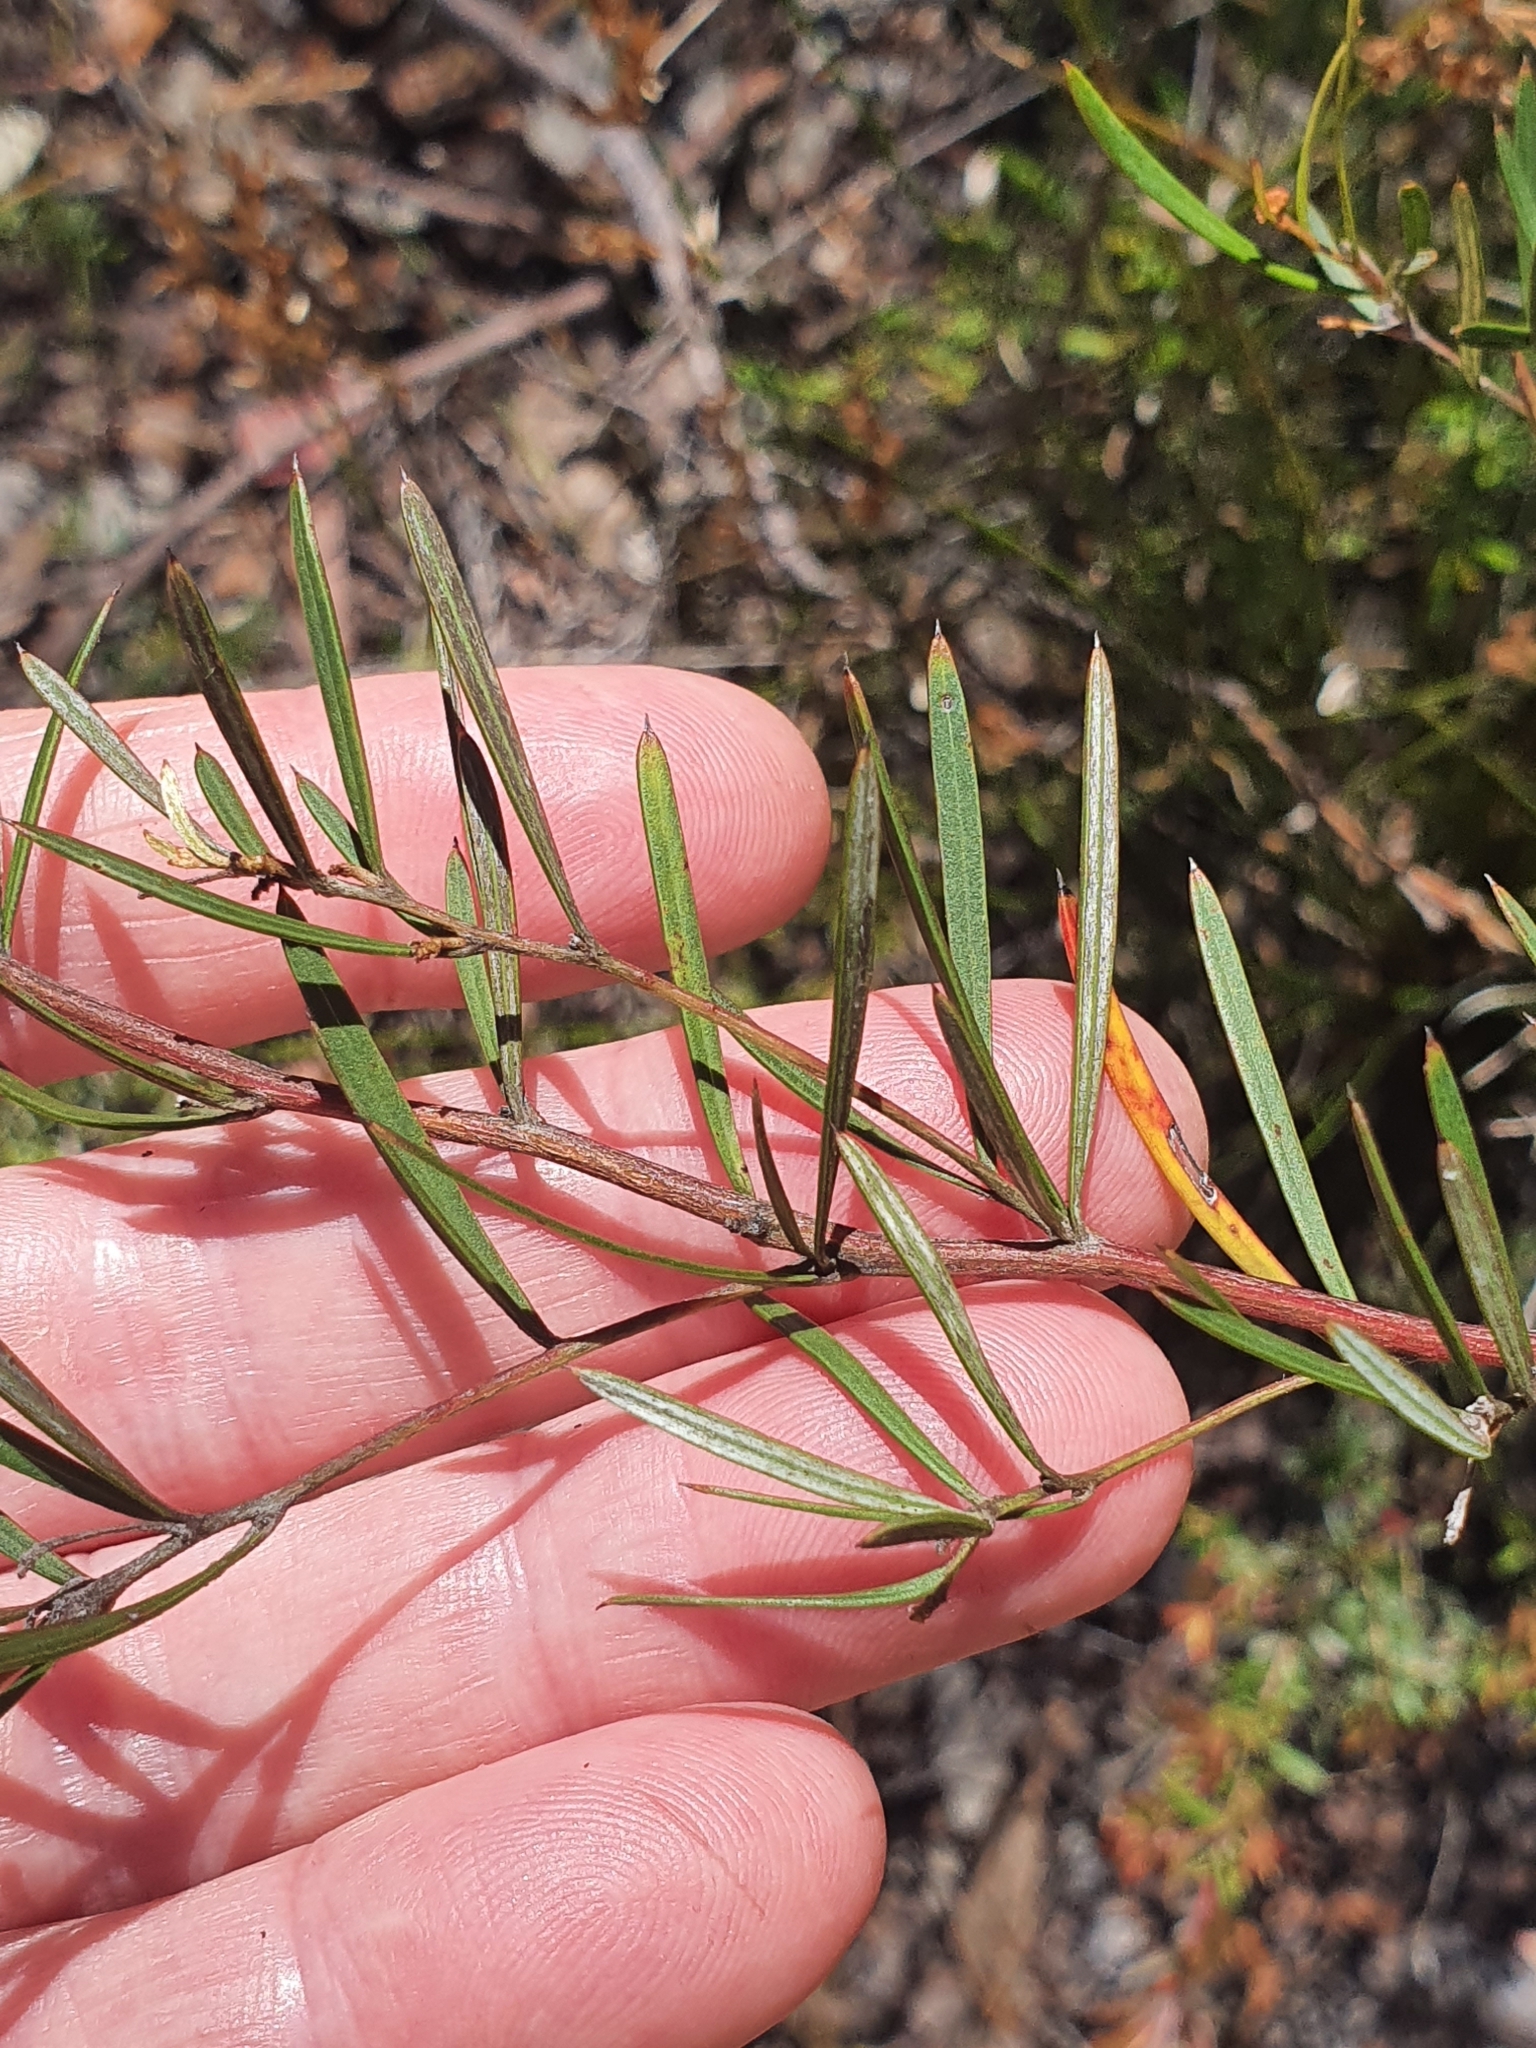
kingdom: Plantae
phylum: Tracheophyta
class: Magnoliopsida
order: Proteales
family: Proteaceae
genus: Grevillea
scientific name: Grevillea parviflora
